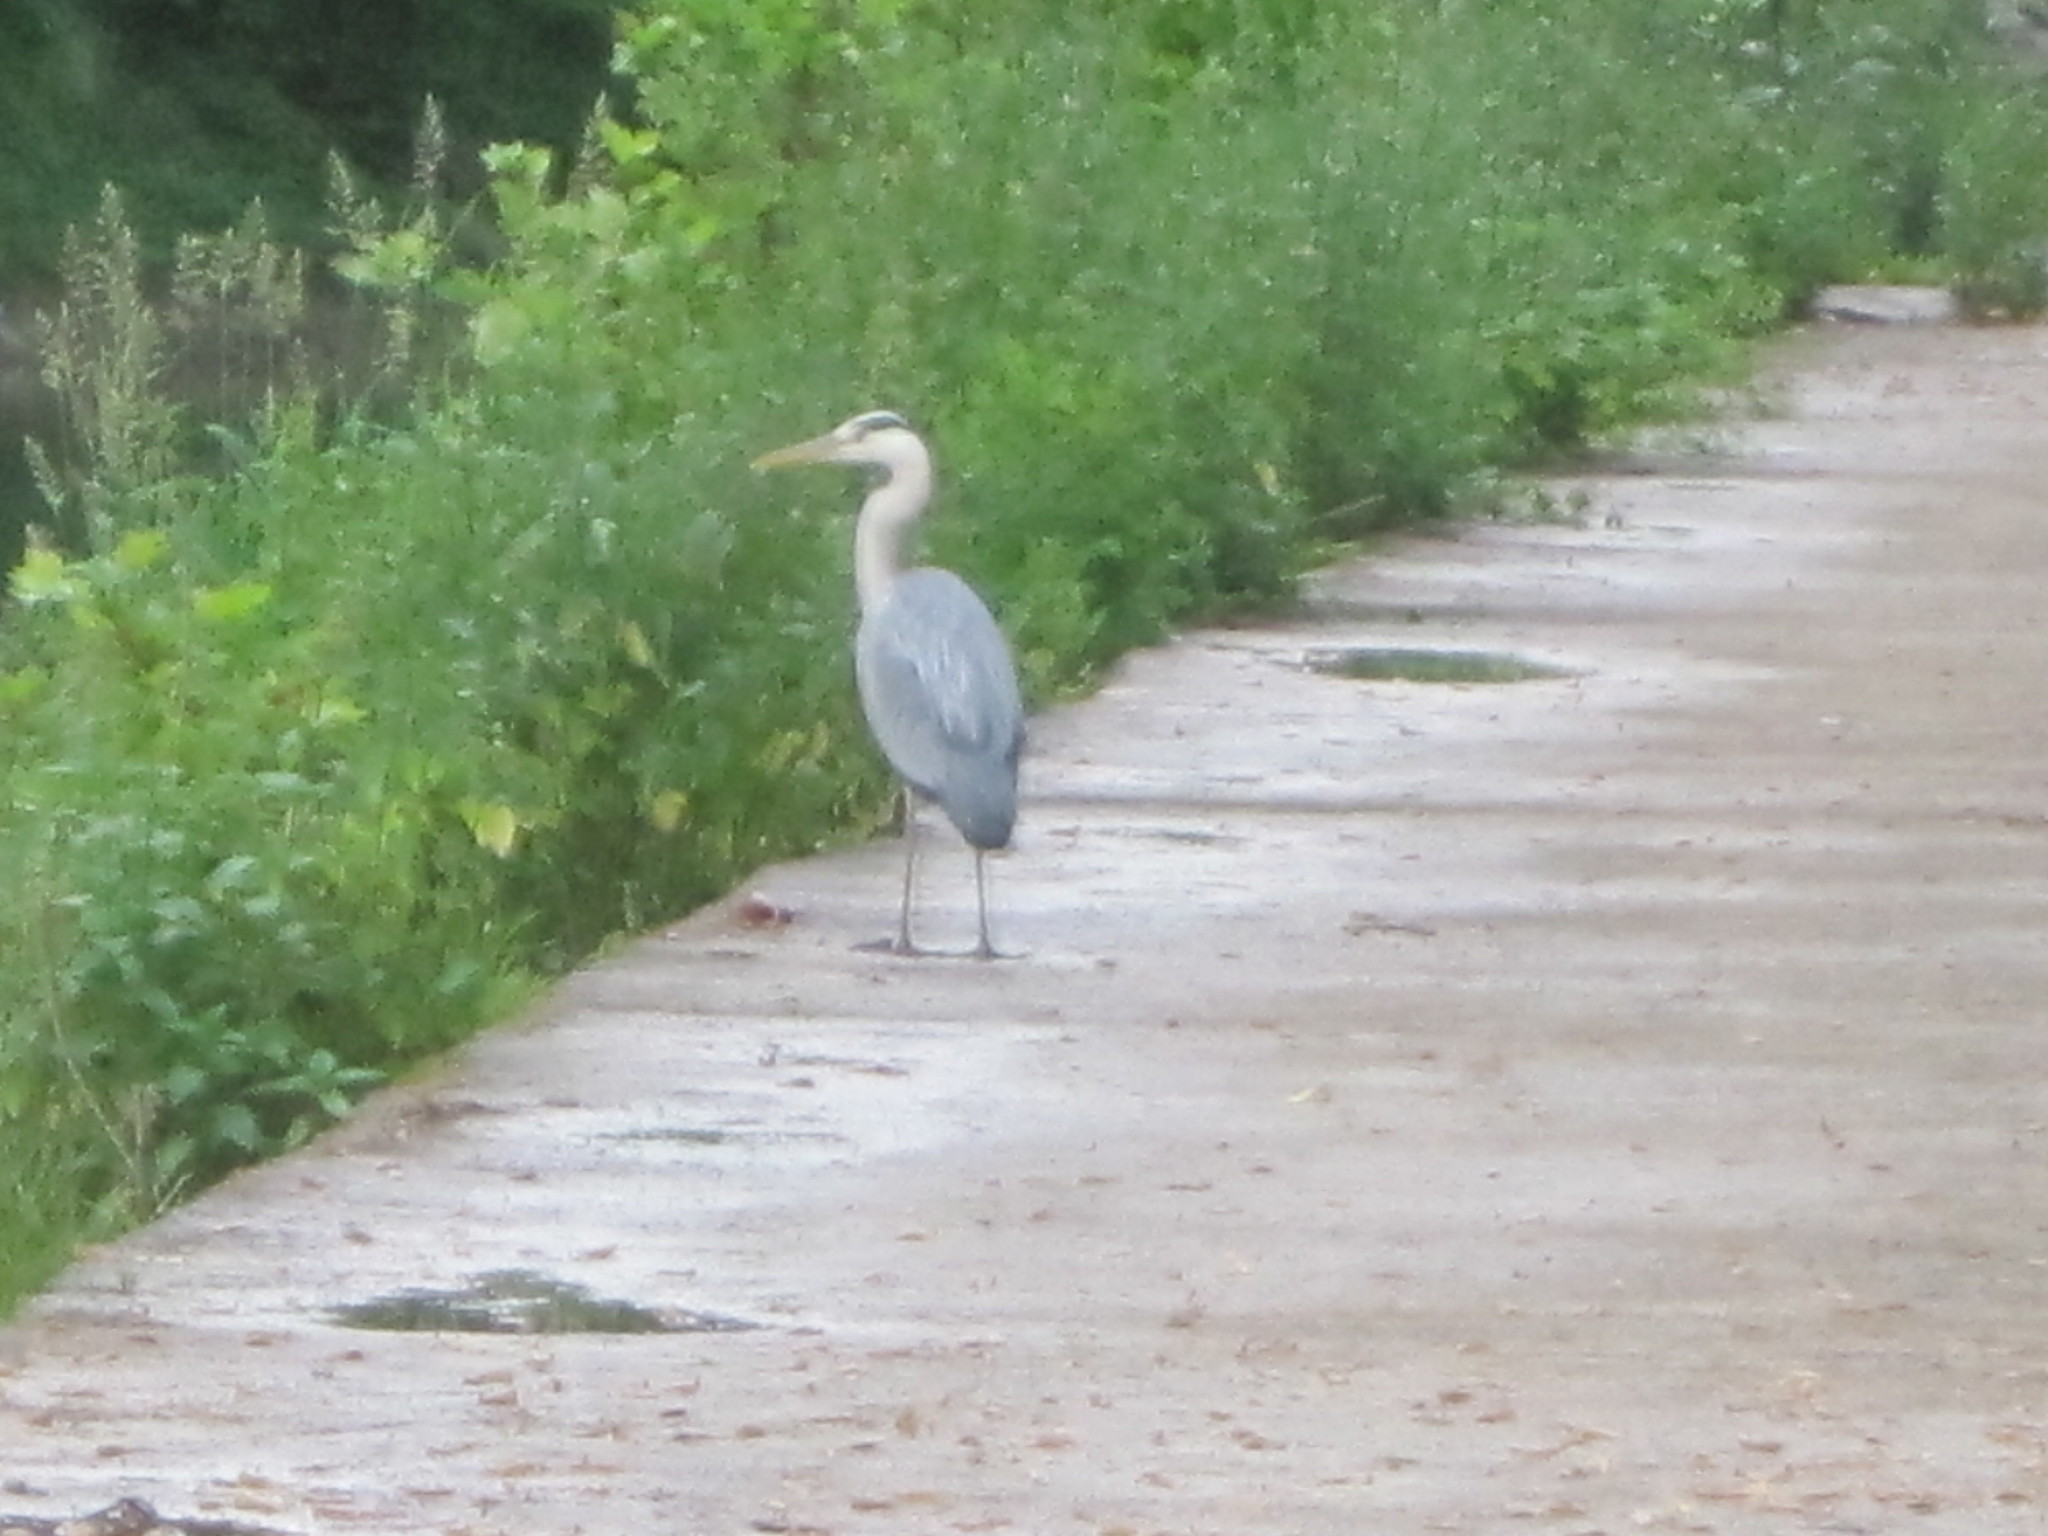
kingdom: Animalia
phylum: Chordata
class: Aves
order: Pelecaniformes
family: Ardeidae
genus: Ardea
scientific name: Ardea cinerea
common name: Grey heron
